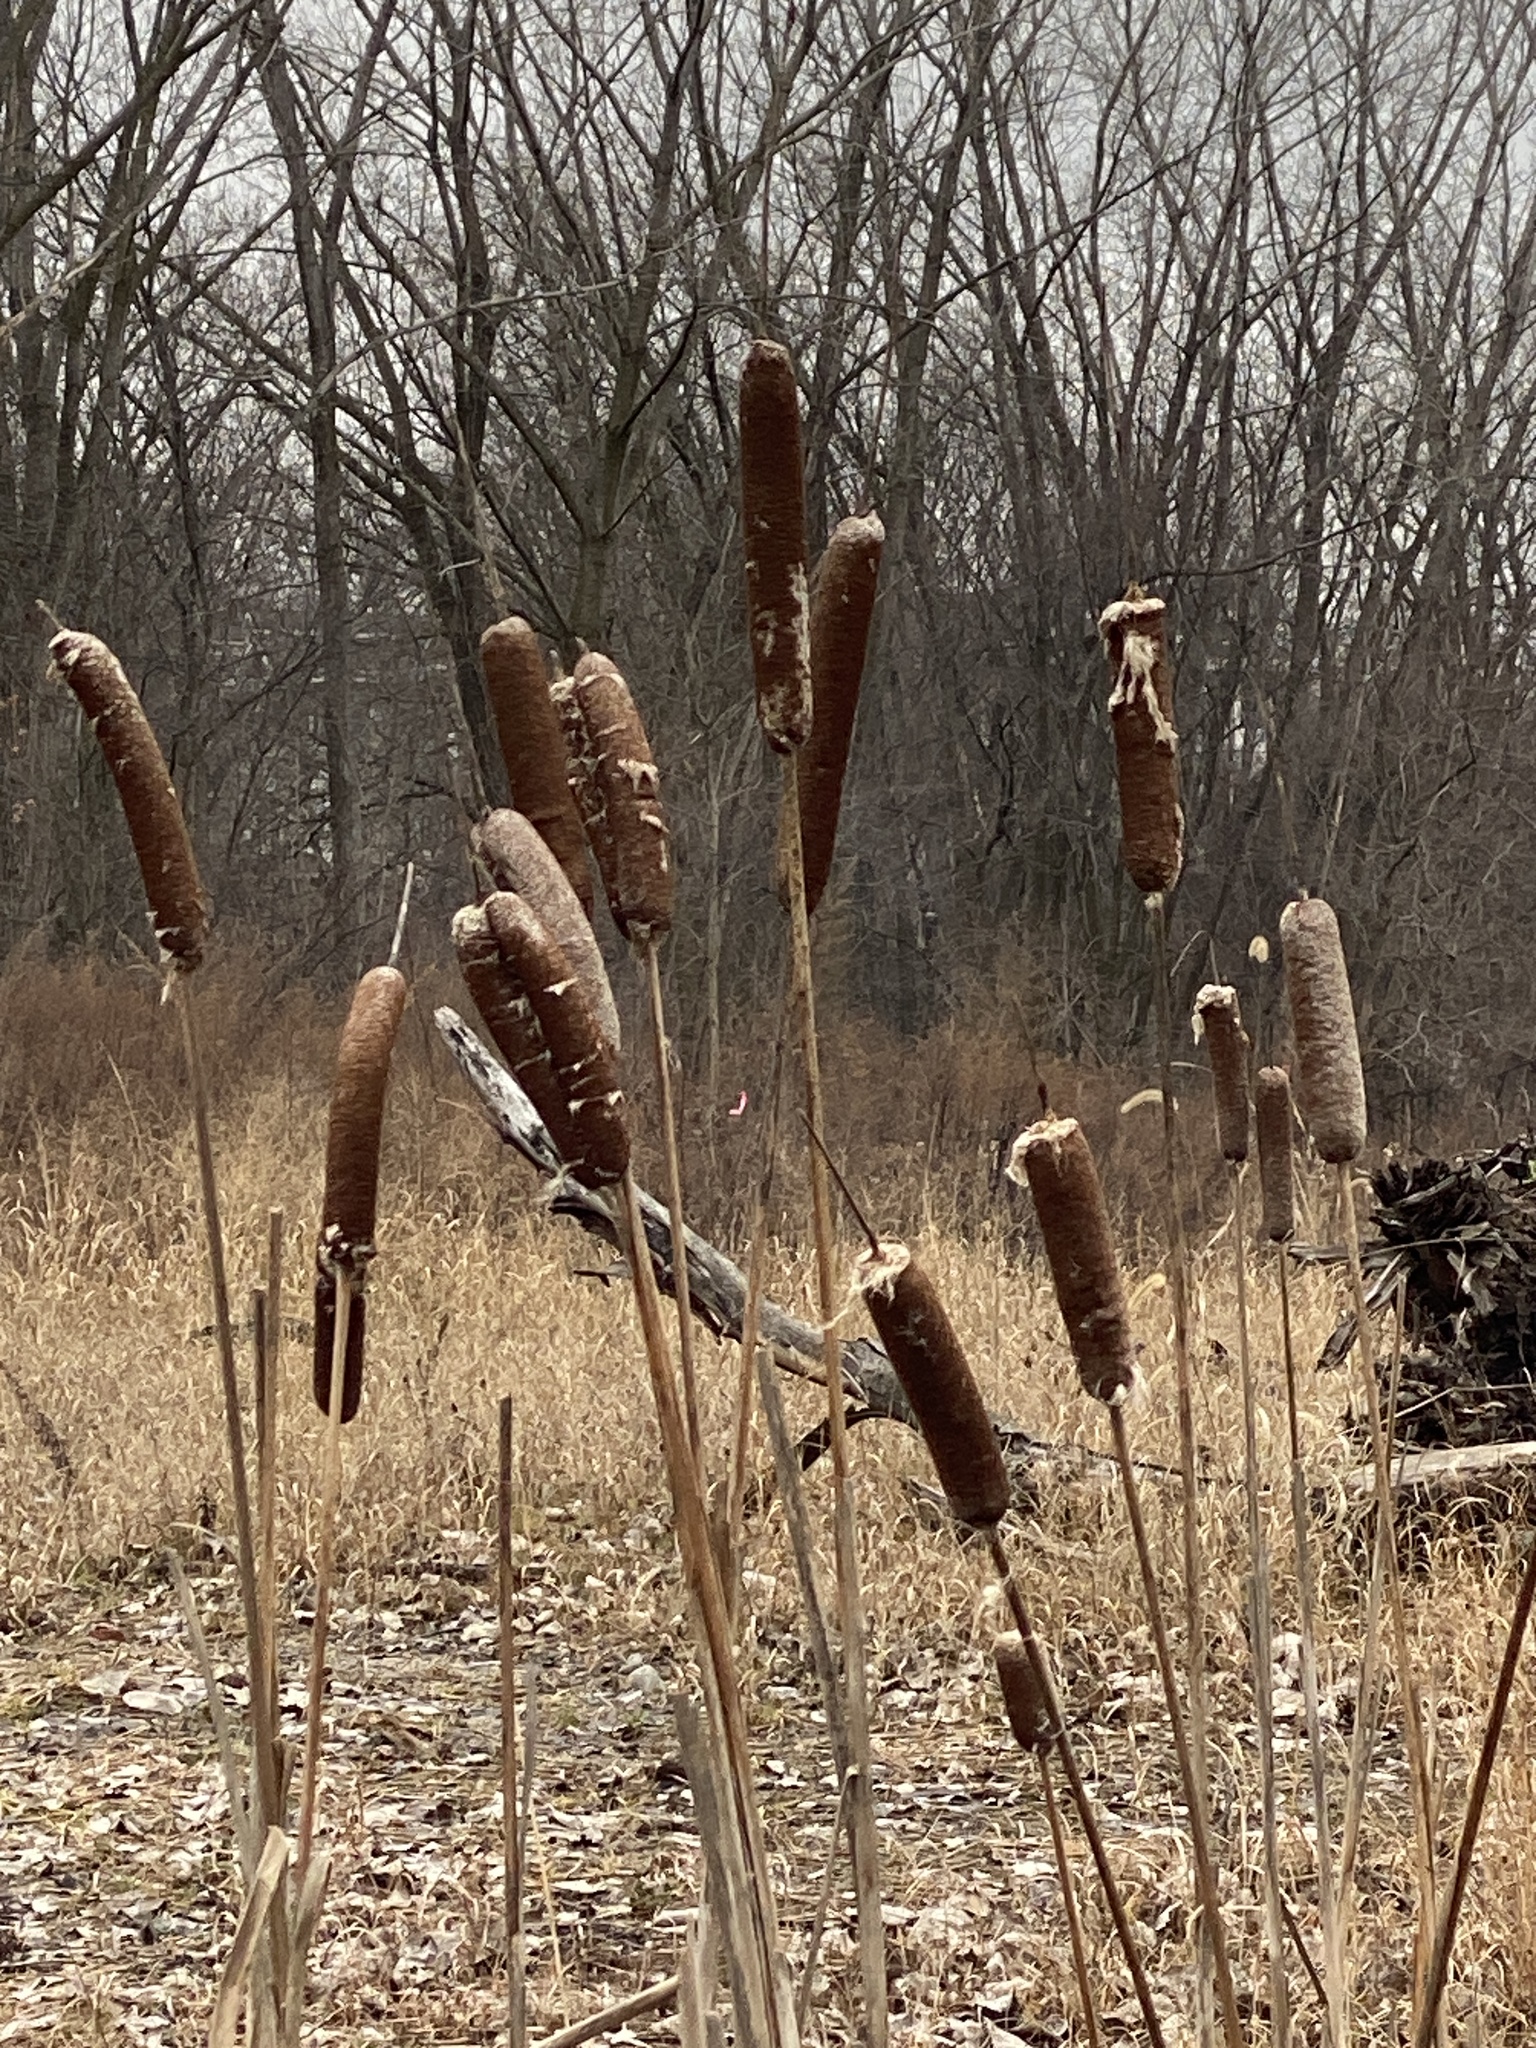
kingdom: Plantae
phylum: Tracheophyta
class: Liliopsida
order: Poales
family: Typhaceae
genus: Typha
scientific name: Typha
